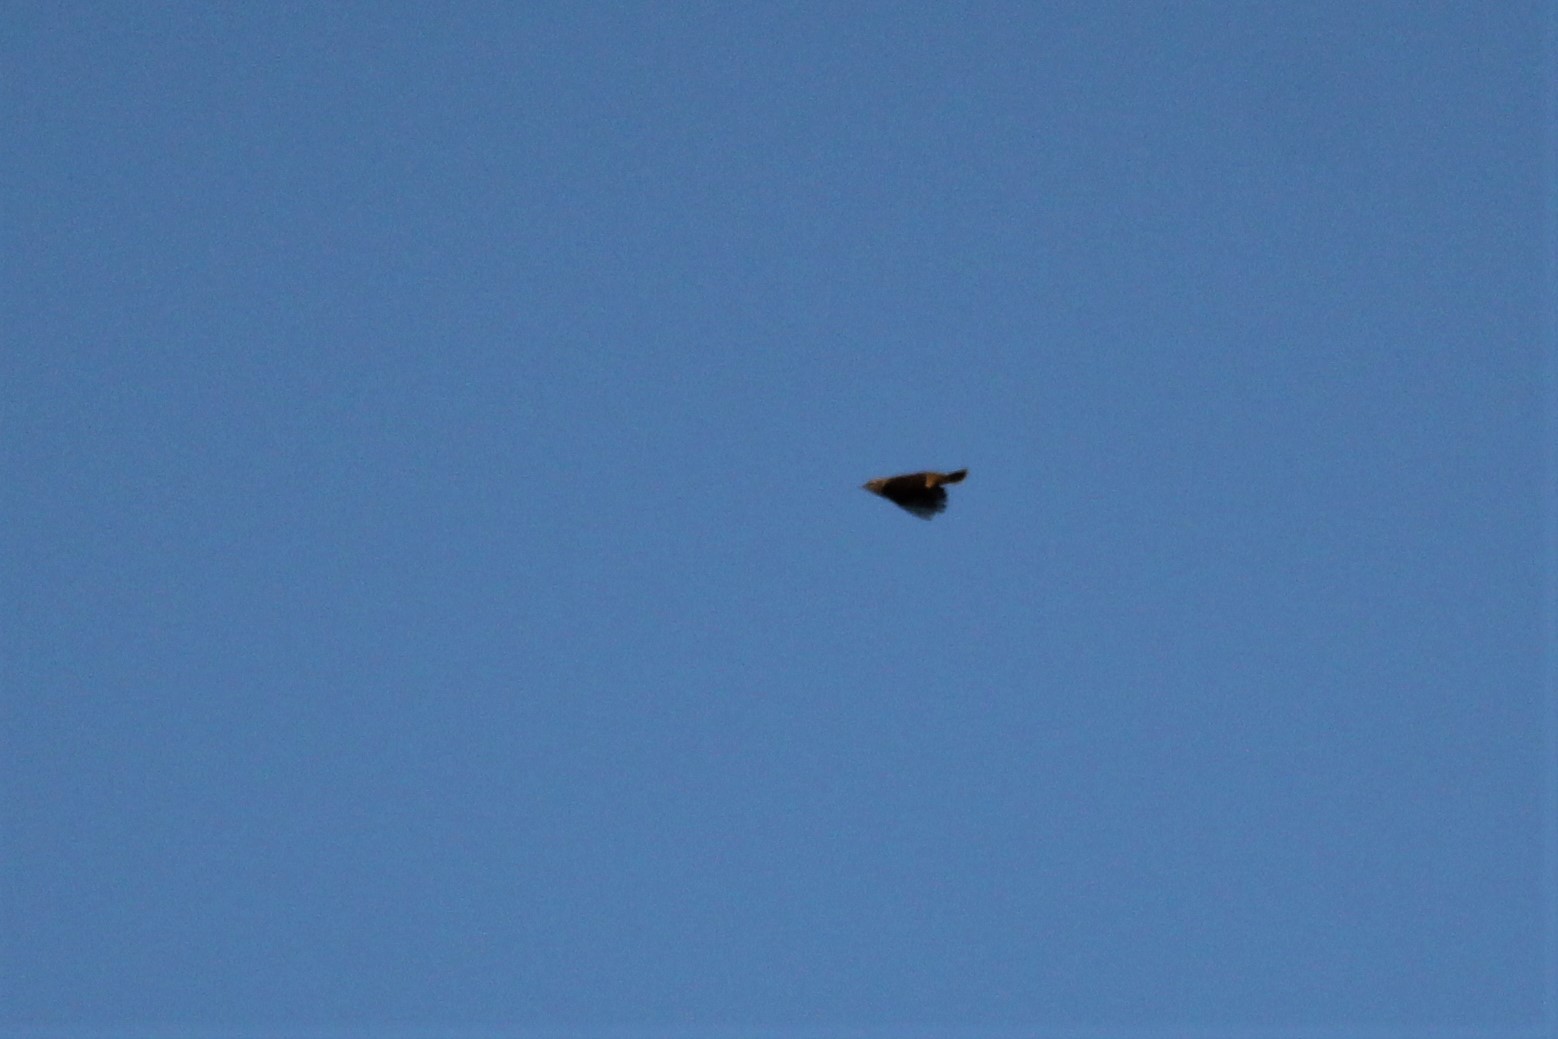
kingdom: Animalia
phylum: Chordata
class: Aves
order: Passeriformes
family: Parulidae
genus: Setophaga
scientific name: Setophaga palmarum
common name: Palm warbler
